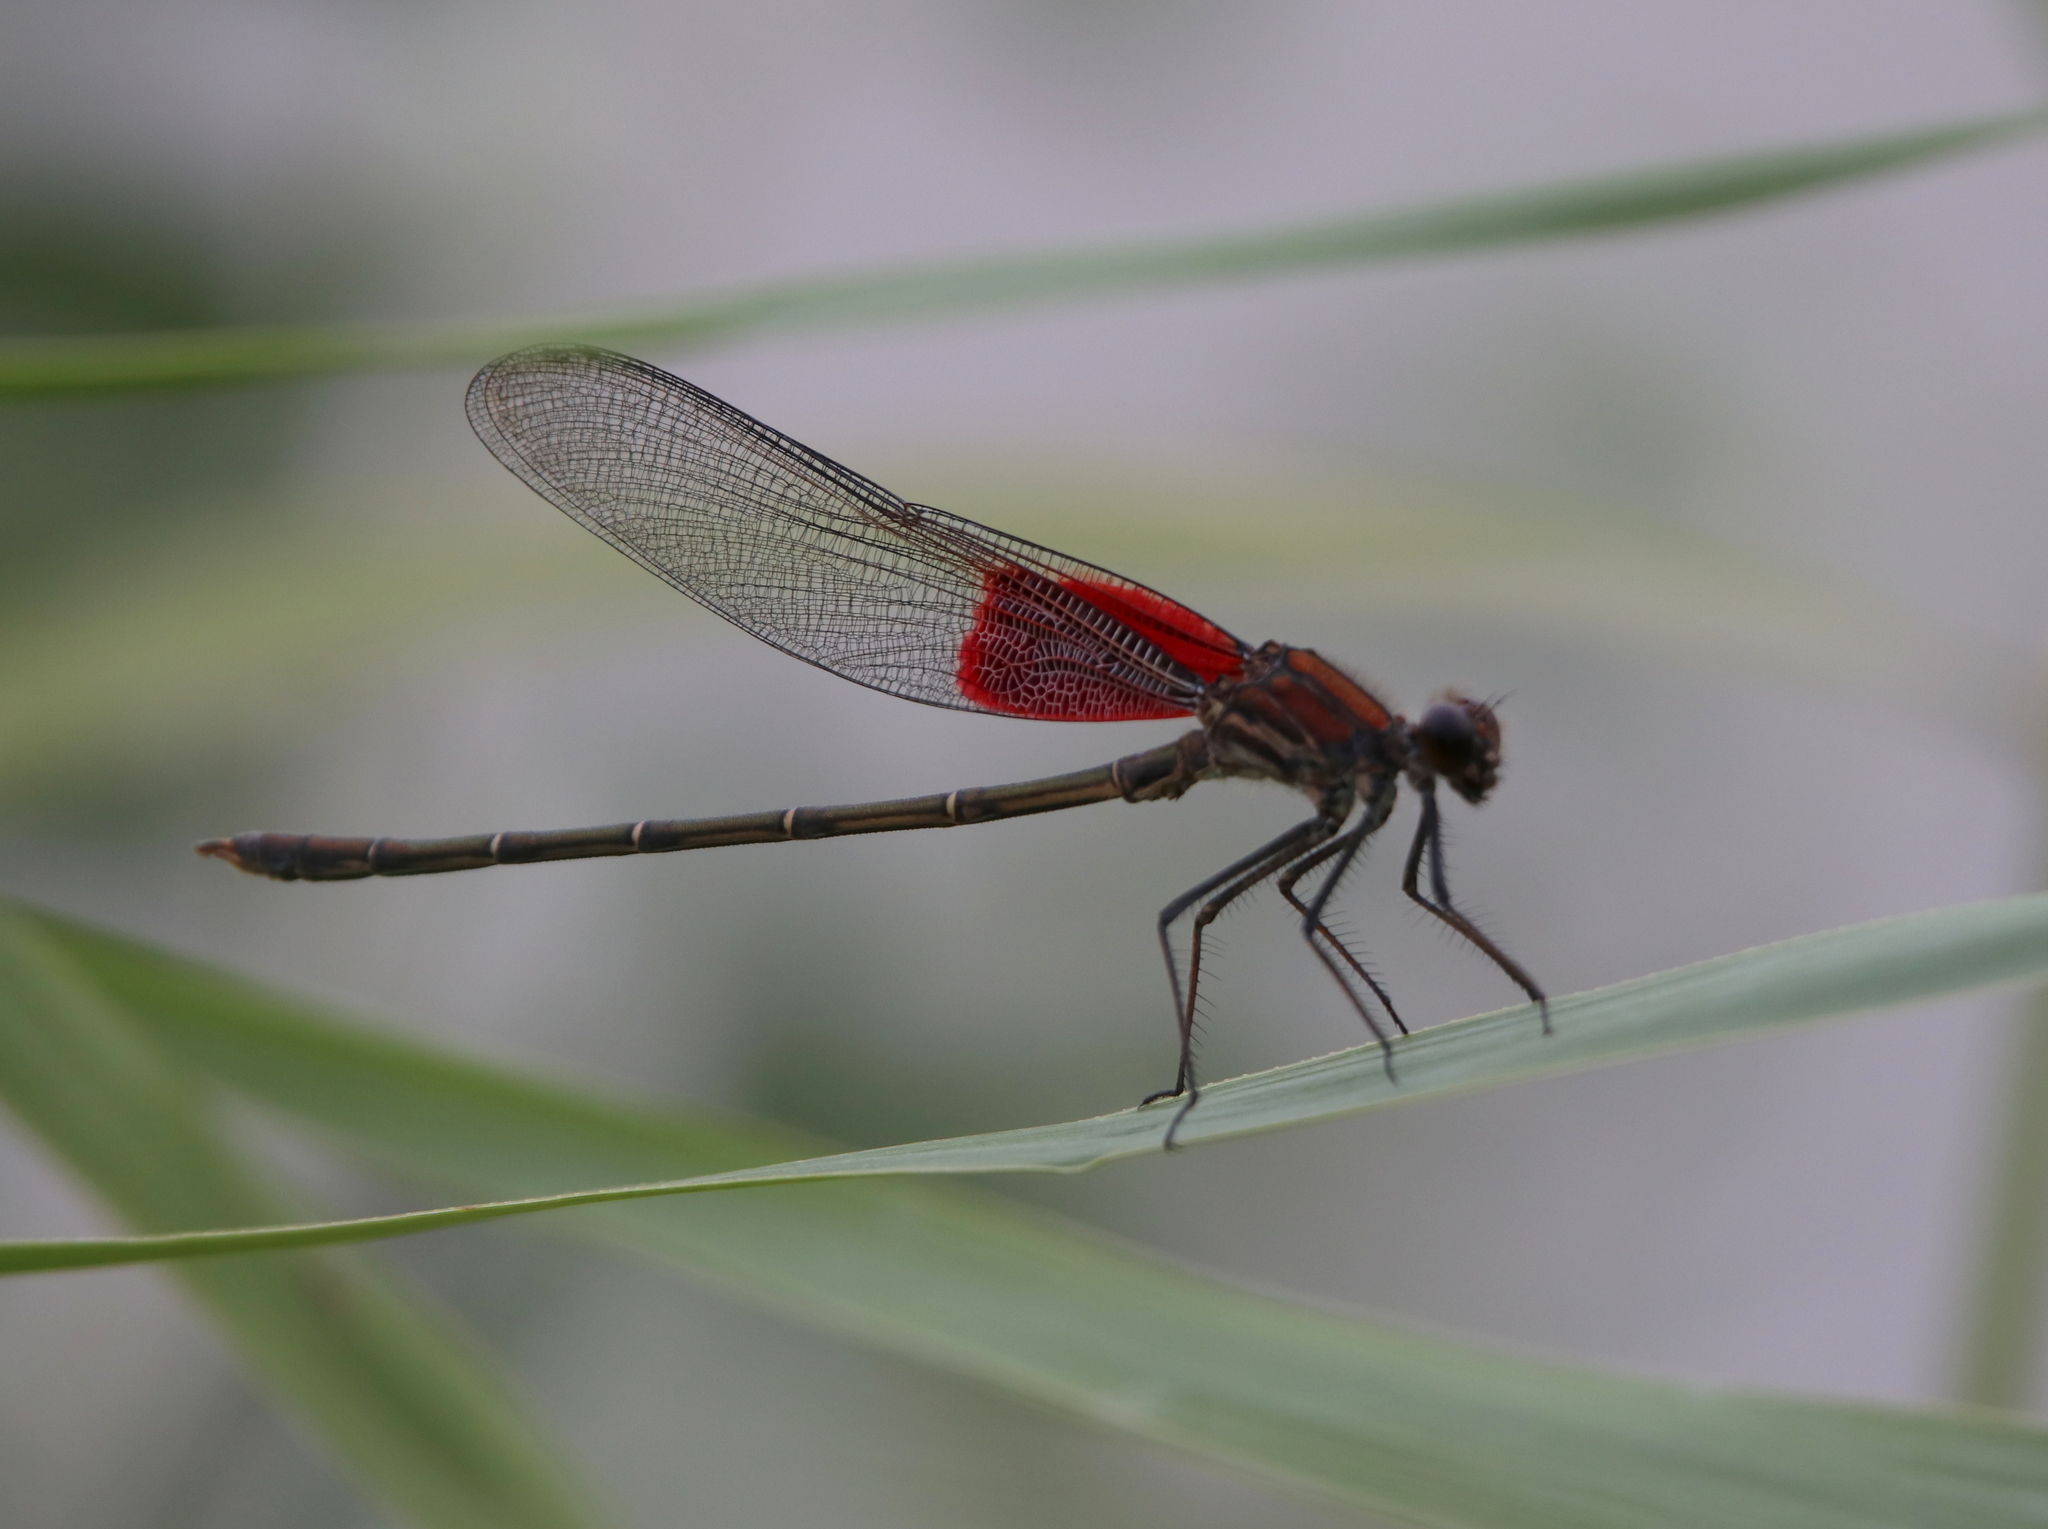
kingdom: Animalia
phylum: Arthropoda
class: Insecta
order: Odonata
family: Calopterygidae
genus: Hetaerina
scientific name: Hetaerina americana
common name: American rubyspot
